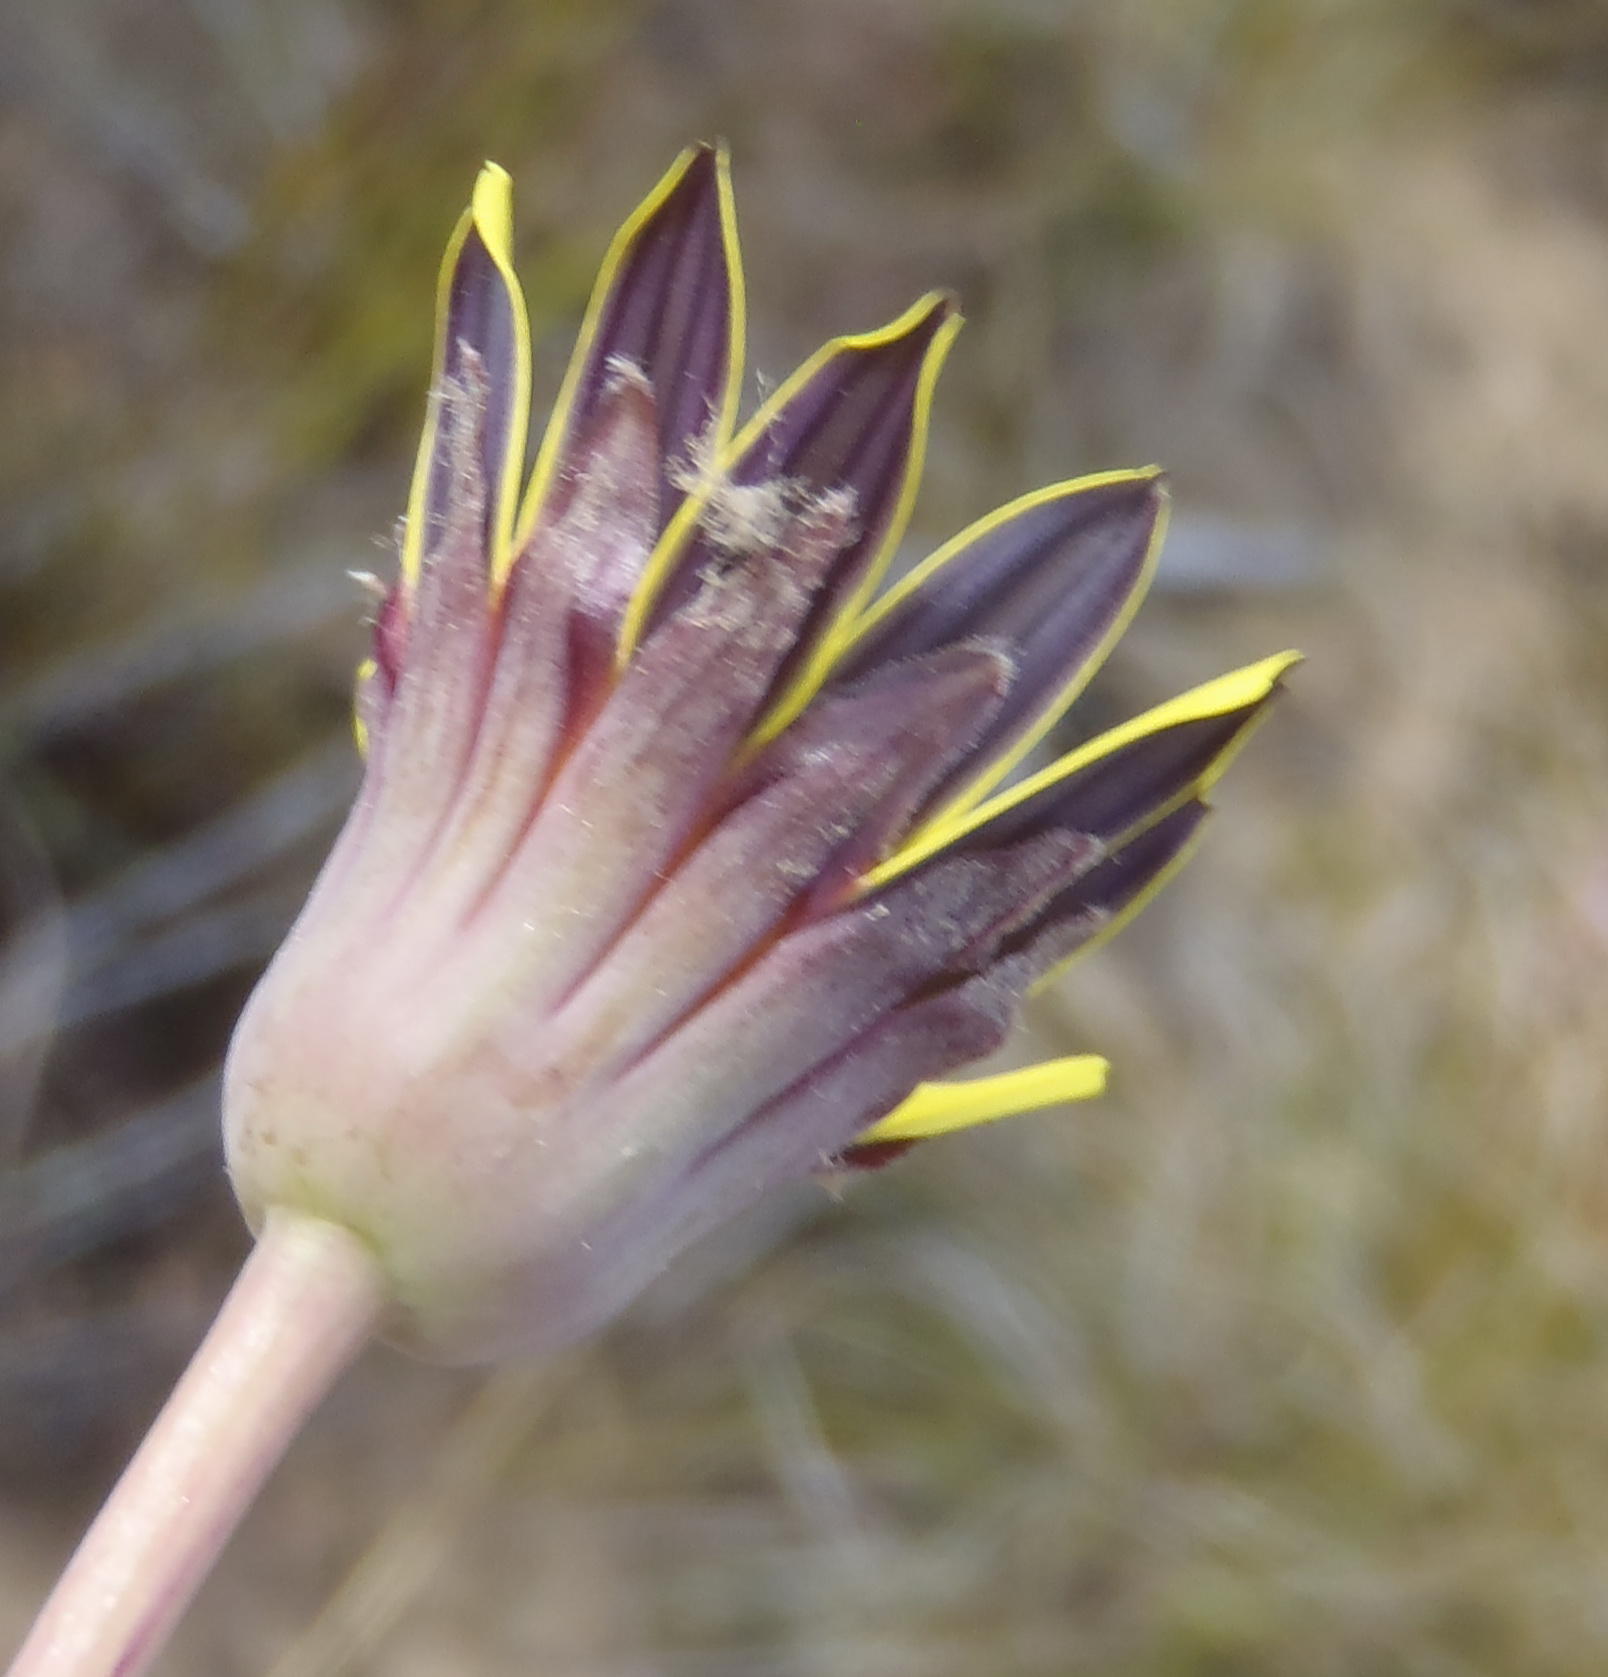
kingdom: Plantae
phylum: Tracheophyta
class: Magnoliopsida
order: Asterales
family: Asteraceae
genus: Othonna
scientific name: Othonna oleracea
